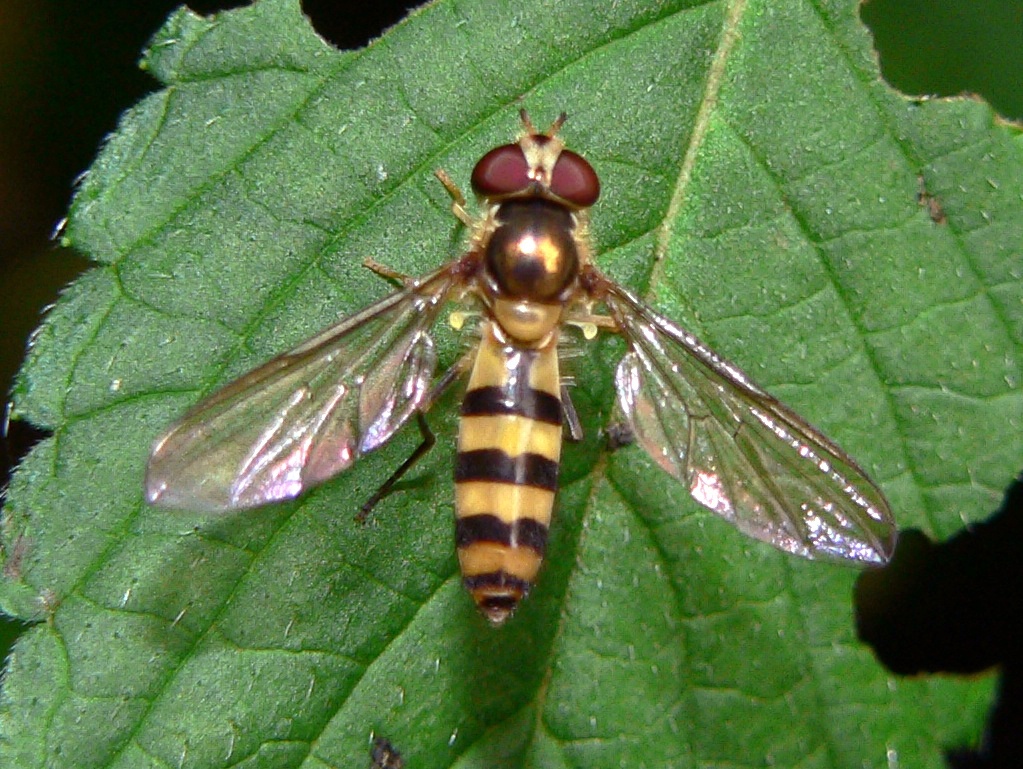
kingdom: Animalia
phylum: Arthropoda
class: Insecta
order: Diptera
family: Syrphidae
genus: Meliscaeva
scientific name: Meliscaeva auricollis
